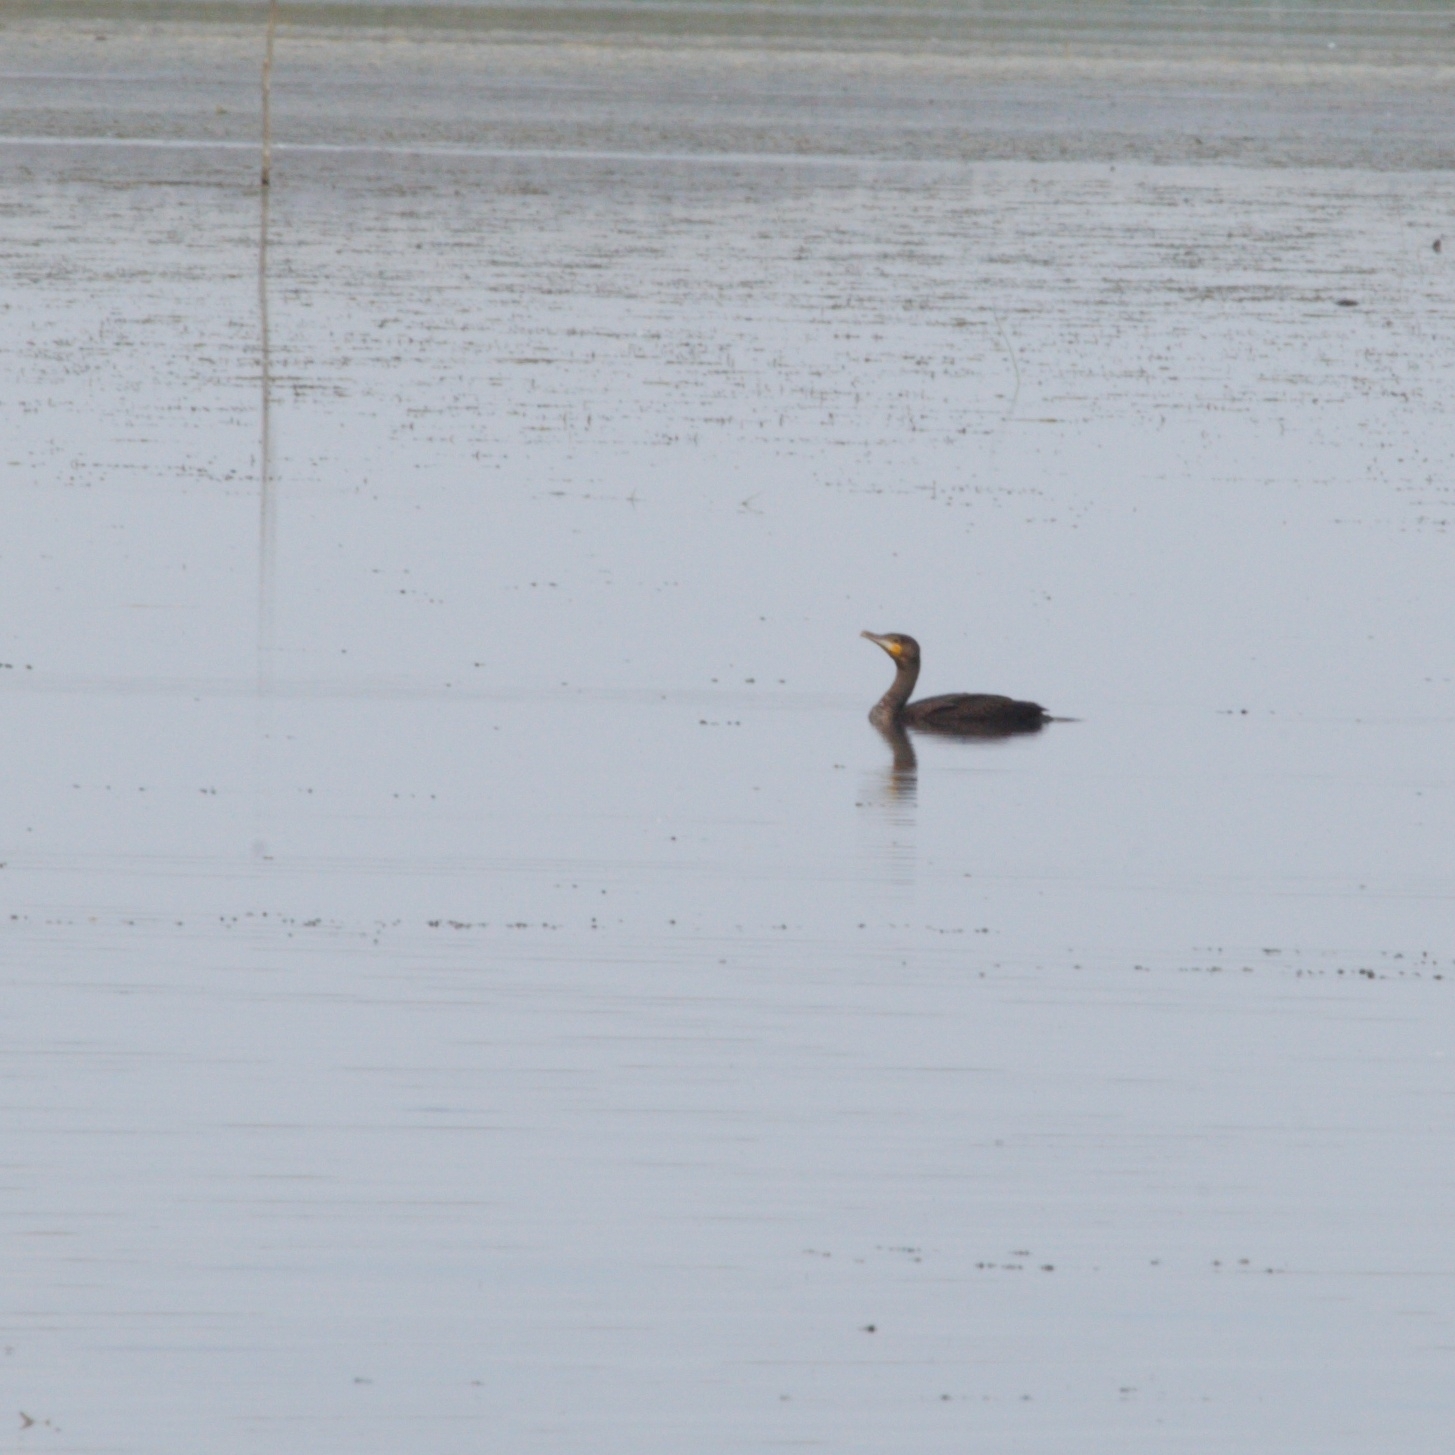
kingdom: Animalia
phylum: Chordata
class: Aves
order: Suliformes
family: Phalacrocoracidae
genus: Phalacrocorax
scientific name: Phalacrocorax carbo
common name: Great cormorant
